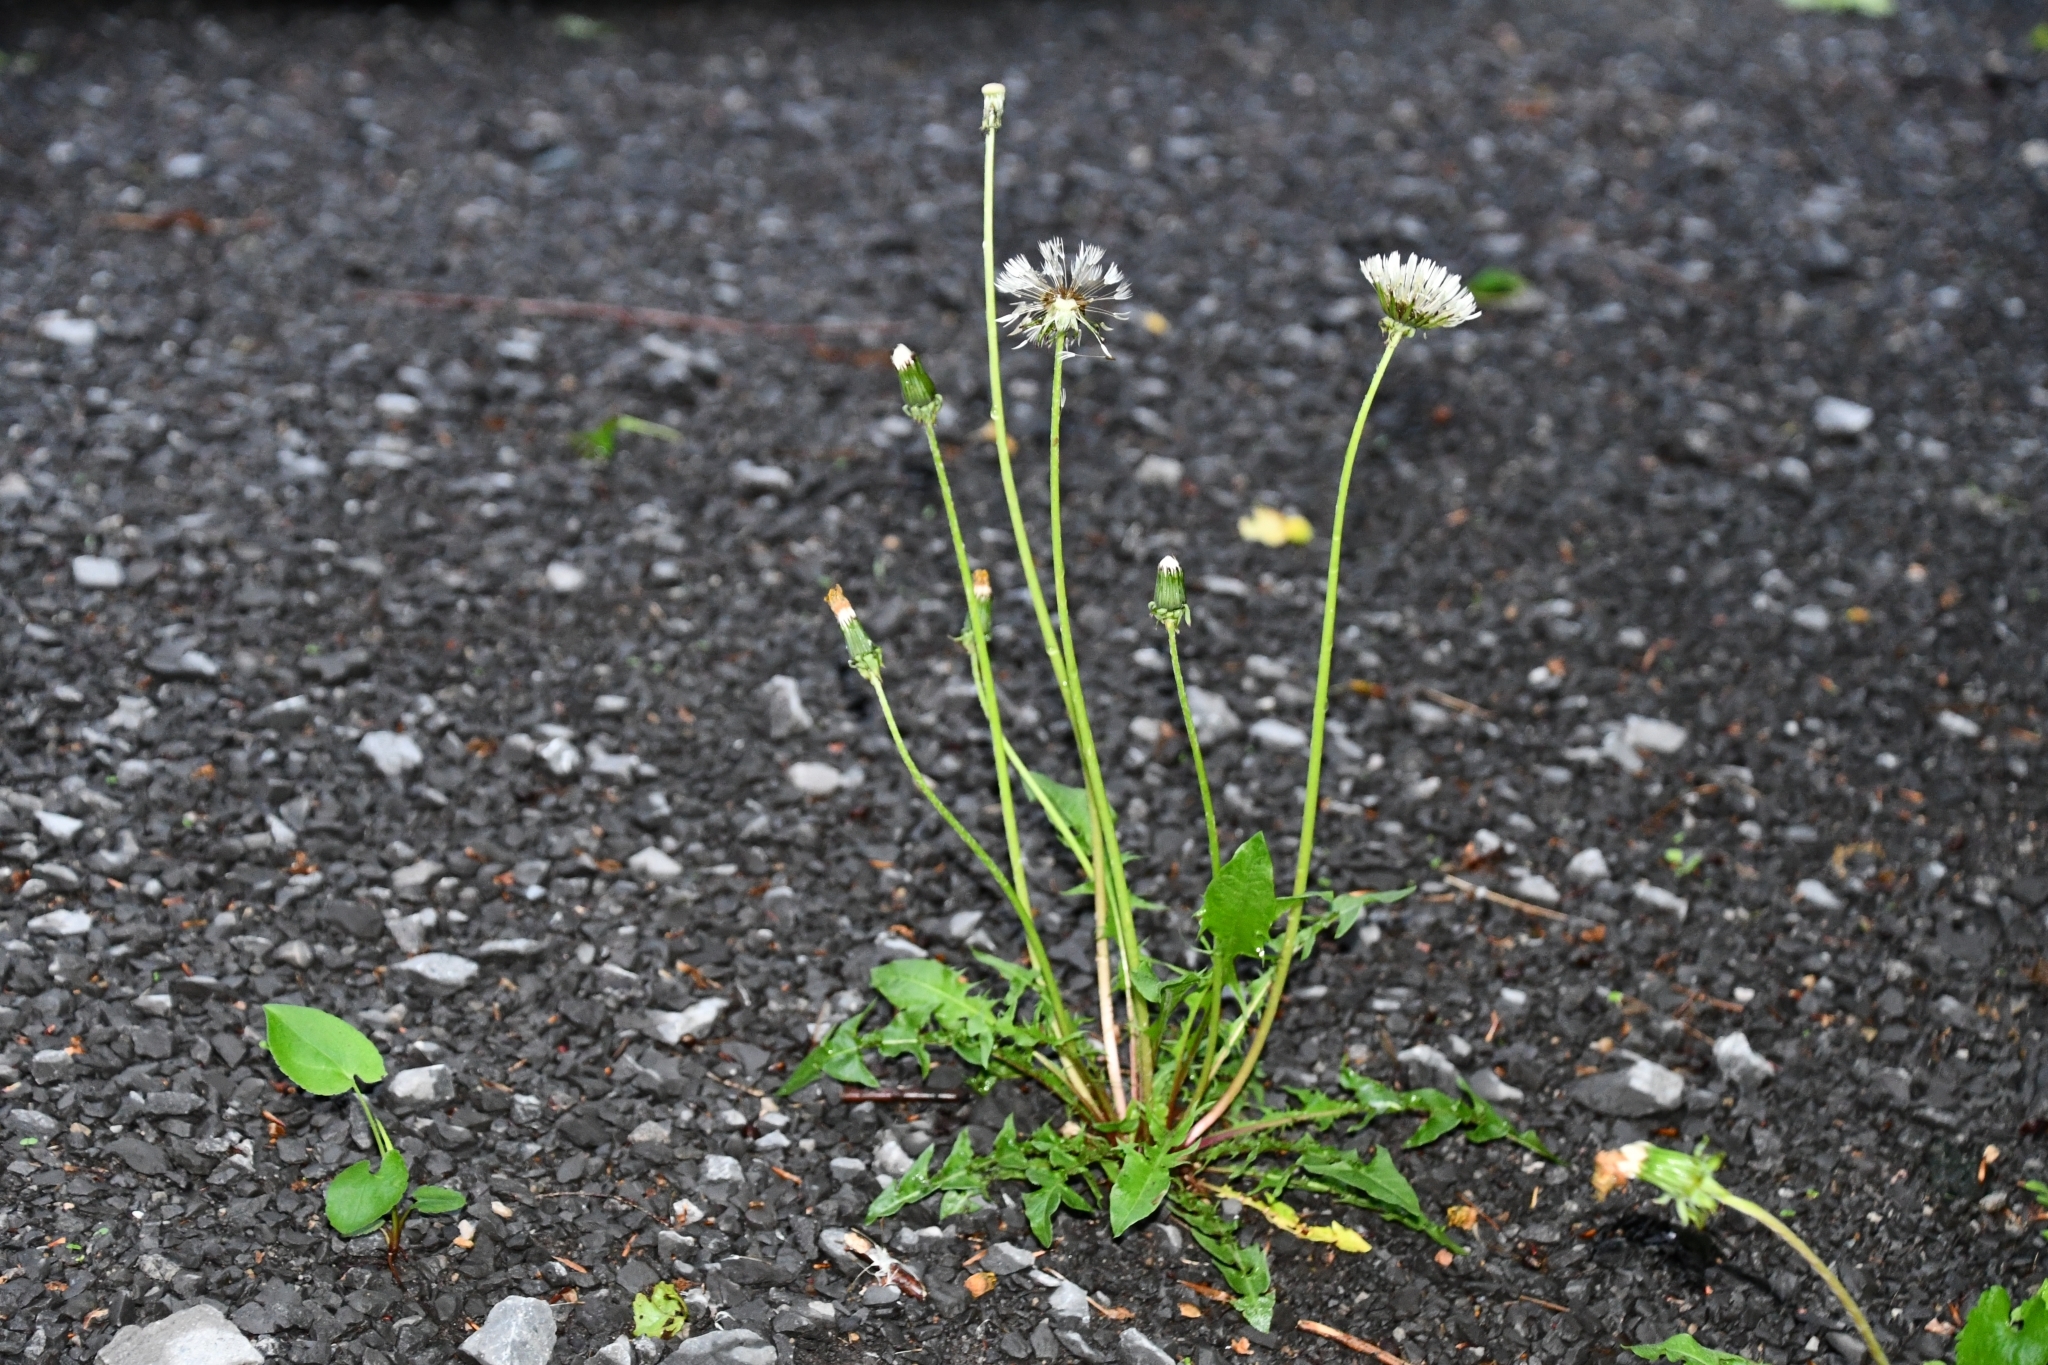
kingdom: Plantae
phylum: Tracheophyta
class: Magnoliopsida
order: Asterales
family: Asteraceae
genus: Taraxacum
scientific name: Taraxacum officinale
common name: Common dandelion
